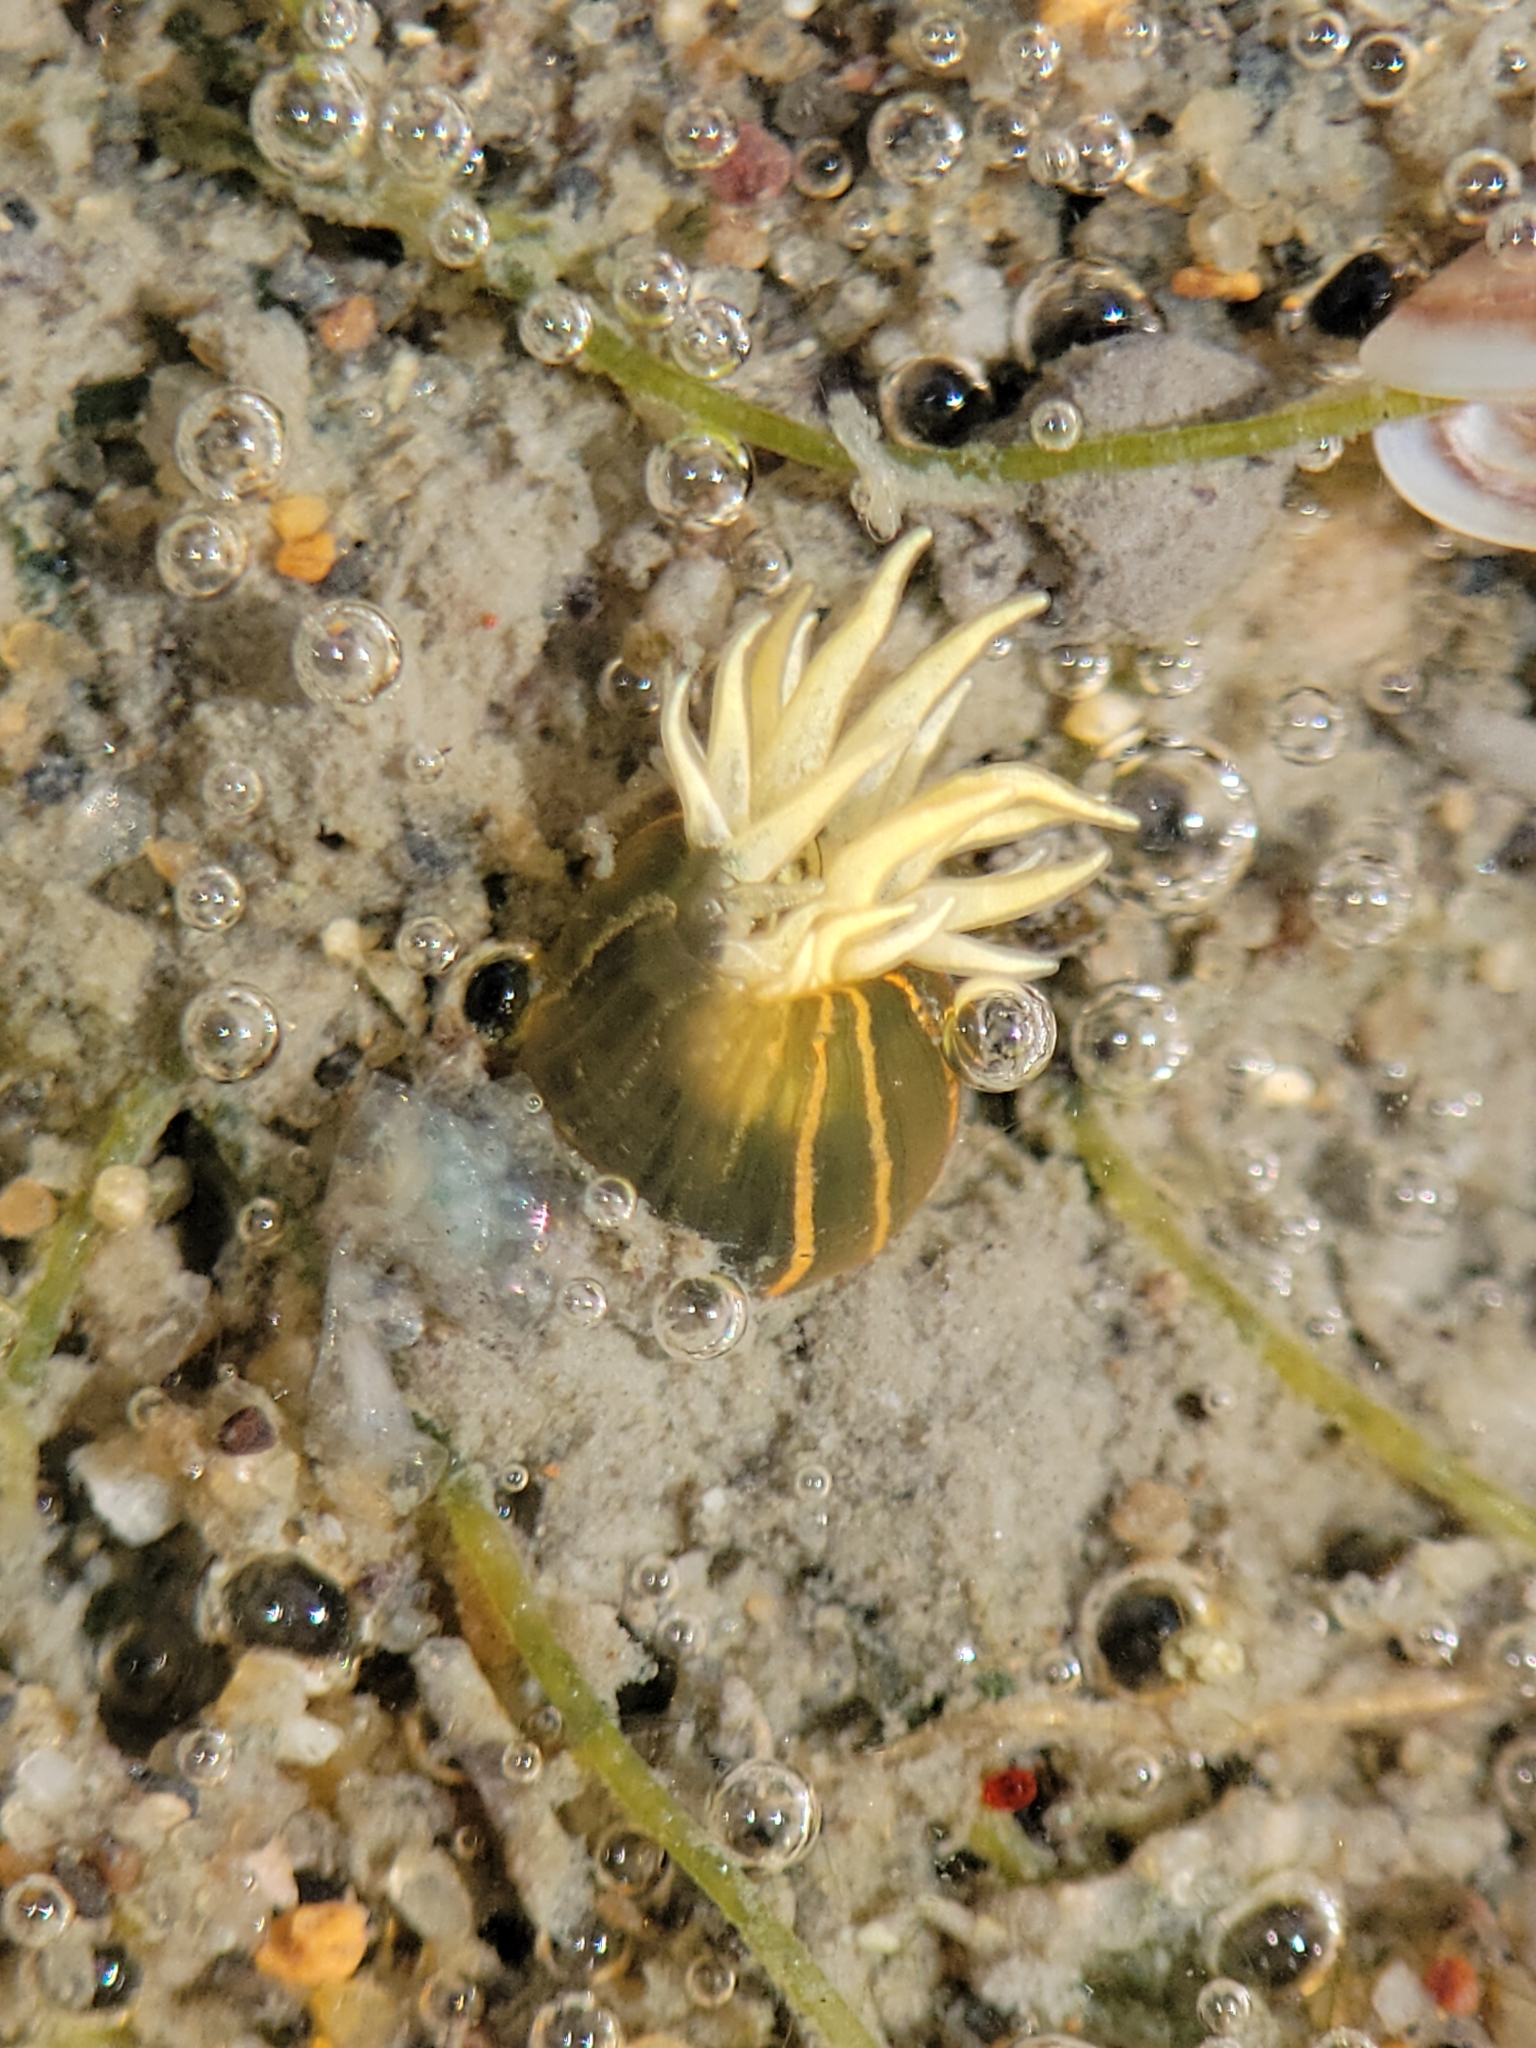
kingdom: Animalia
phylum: Cnidaria
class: Anthozoa
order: Actiniaria
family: Diadumenidae
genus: Diadumene
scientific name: Diadumene lineata
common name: Orange-striped anemone
